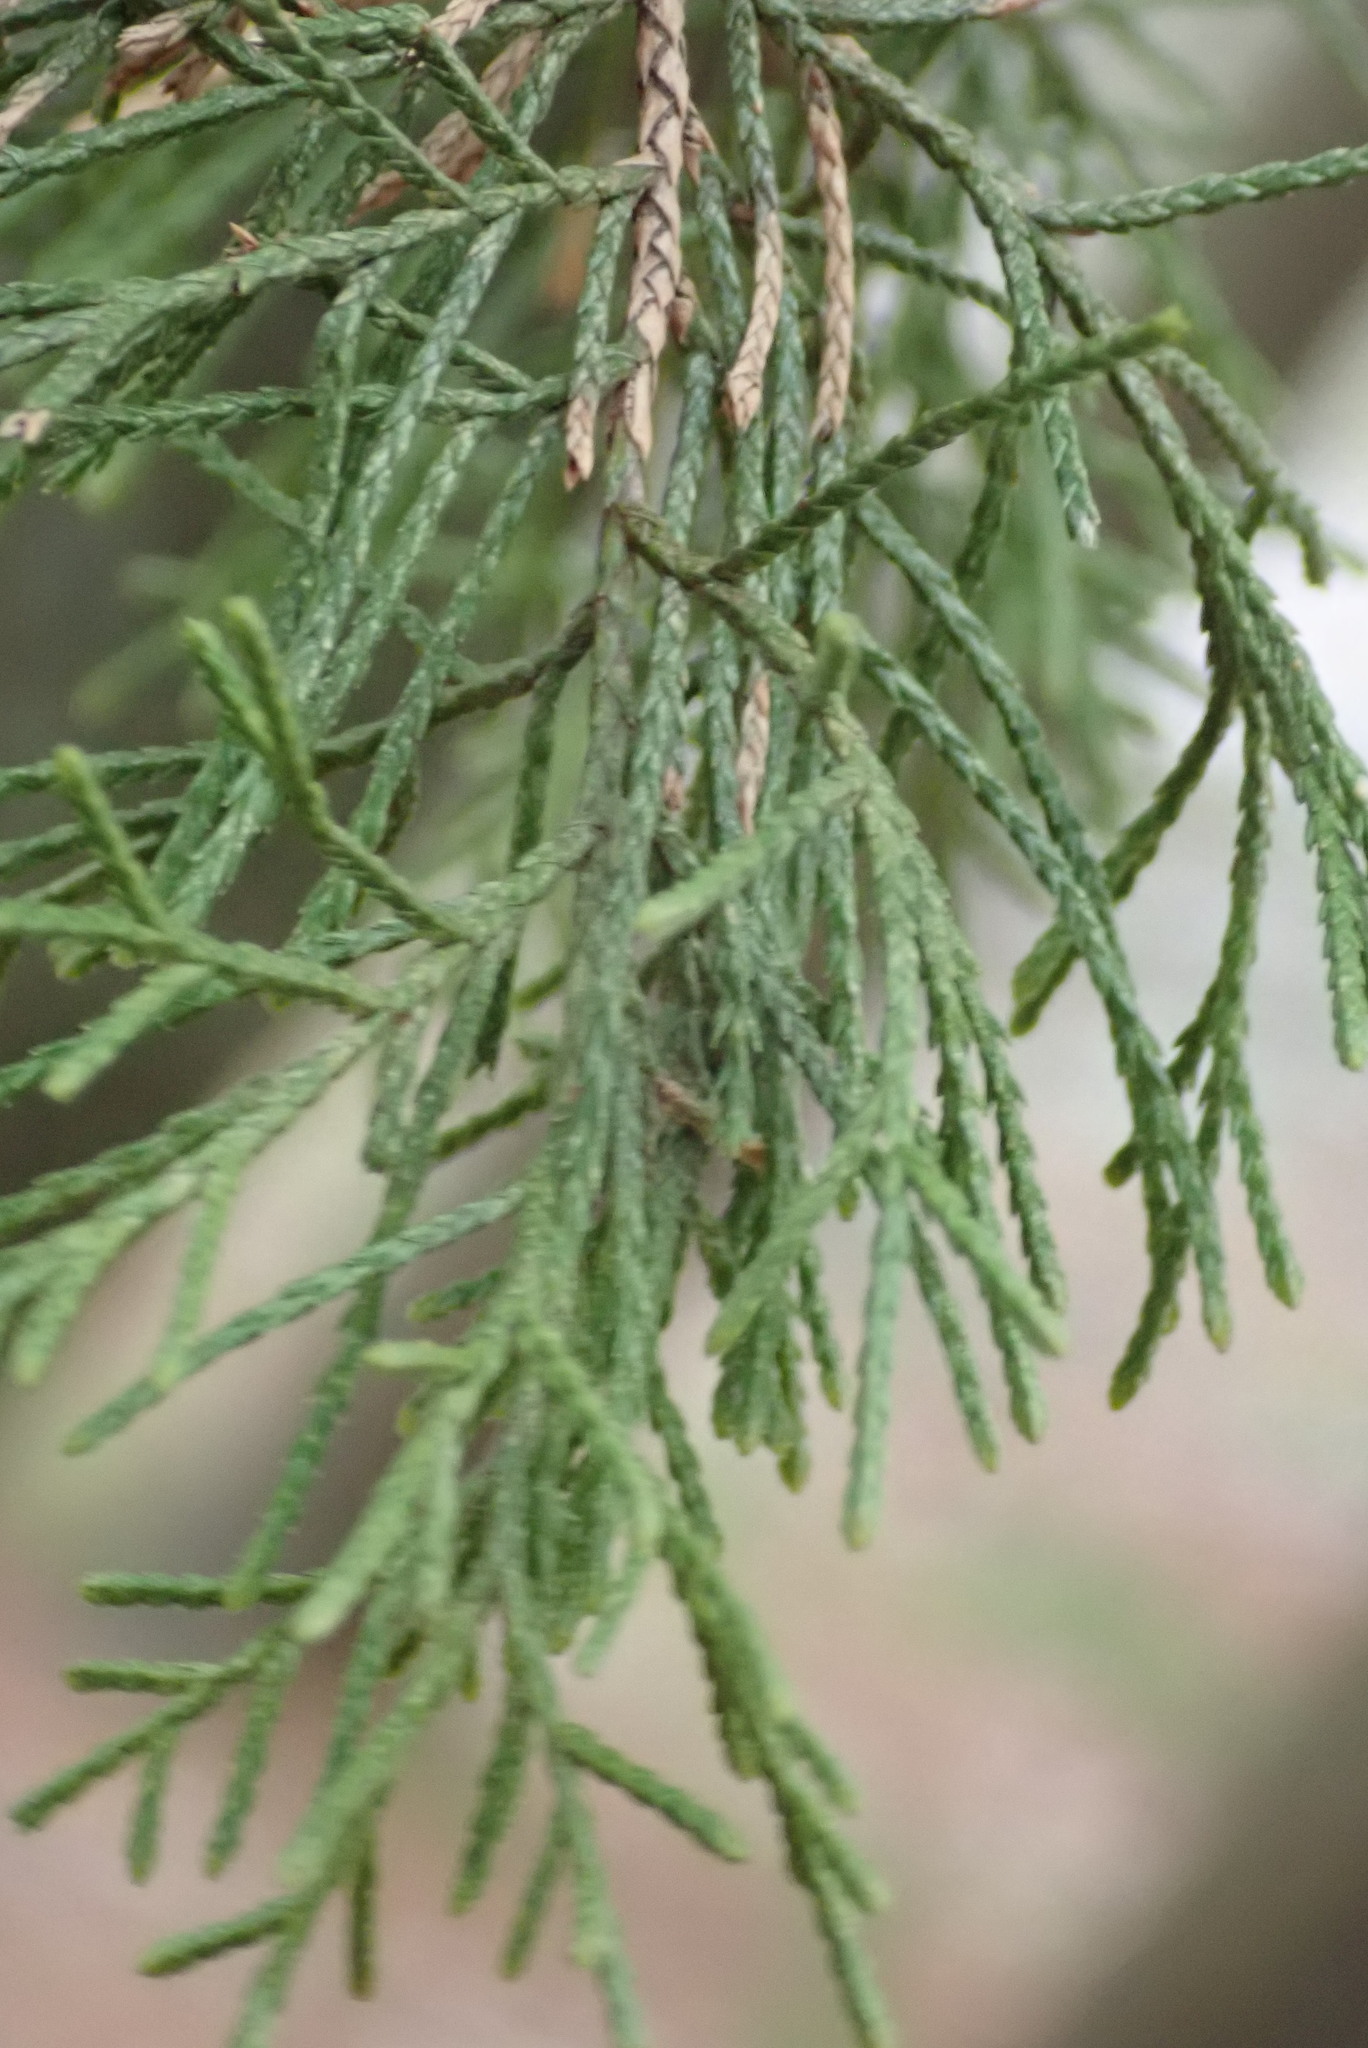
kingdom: Plantae
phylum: Tracheophyta
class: Pinopsida
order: Pinales
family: Cupressaceae
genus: Juniperus
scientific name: Juniperus virginiana
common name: Red juniper
